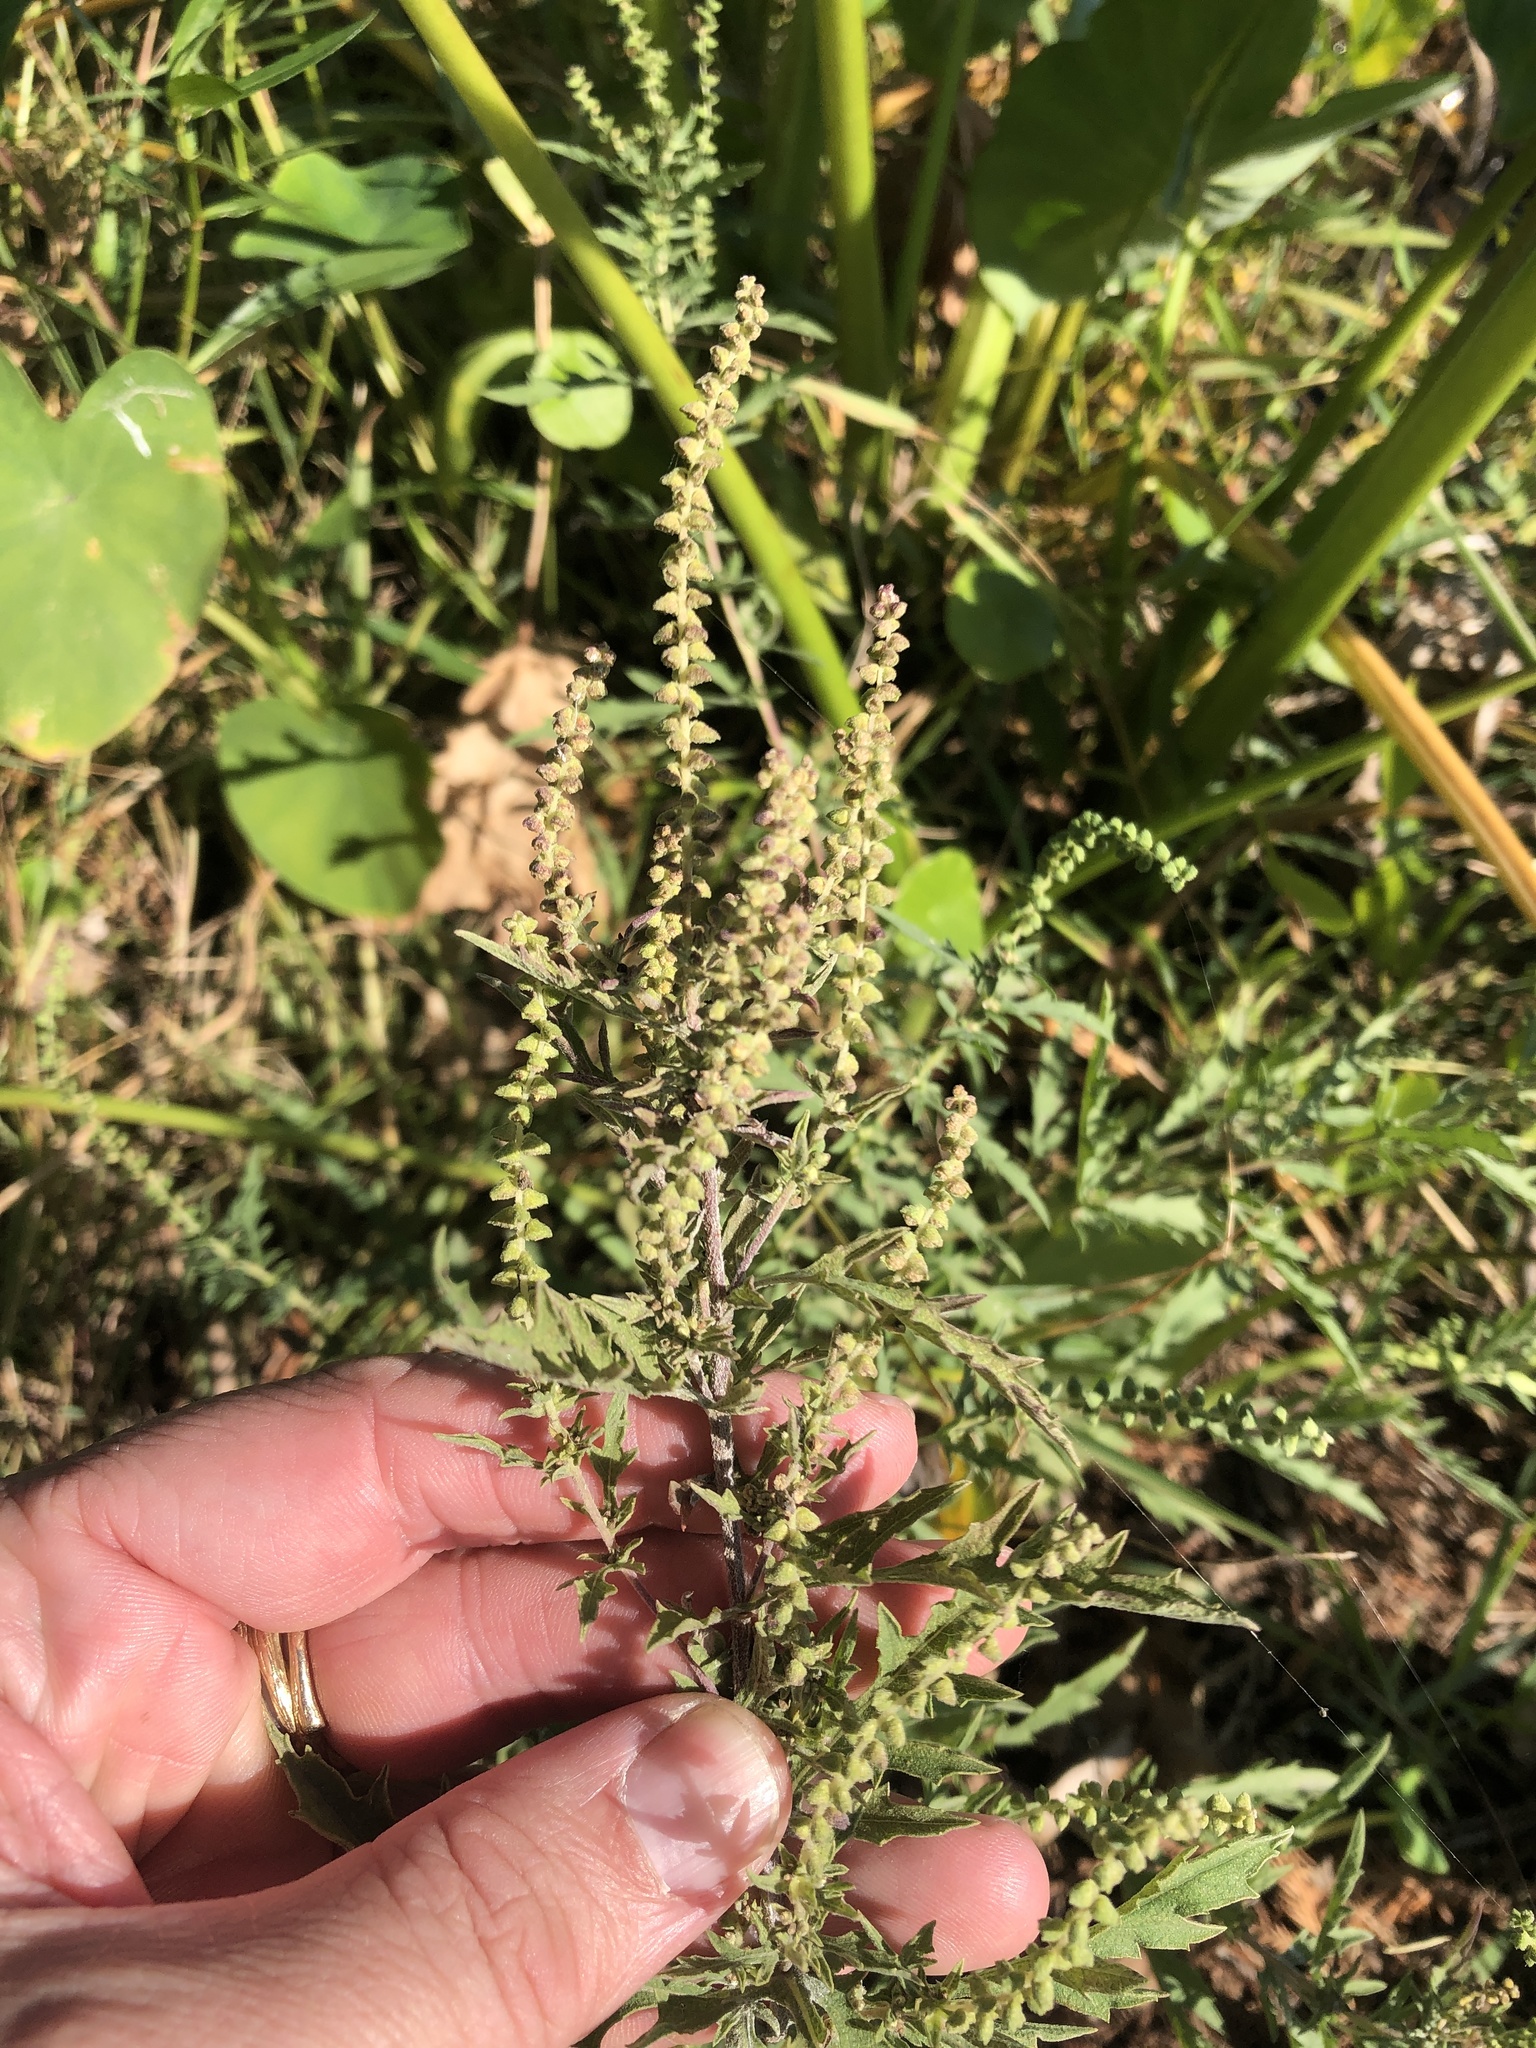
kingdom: Plantae
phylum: Tracheophyta
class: Magnoliopsida
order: Asterales
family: Asteraceae
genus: Ambrosia
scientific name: Ambrosia psilostachya
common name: Perennial ragweed
